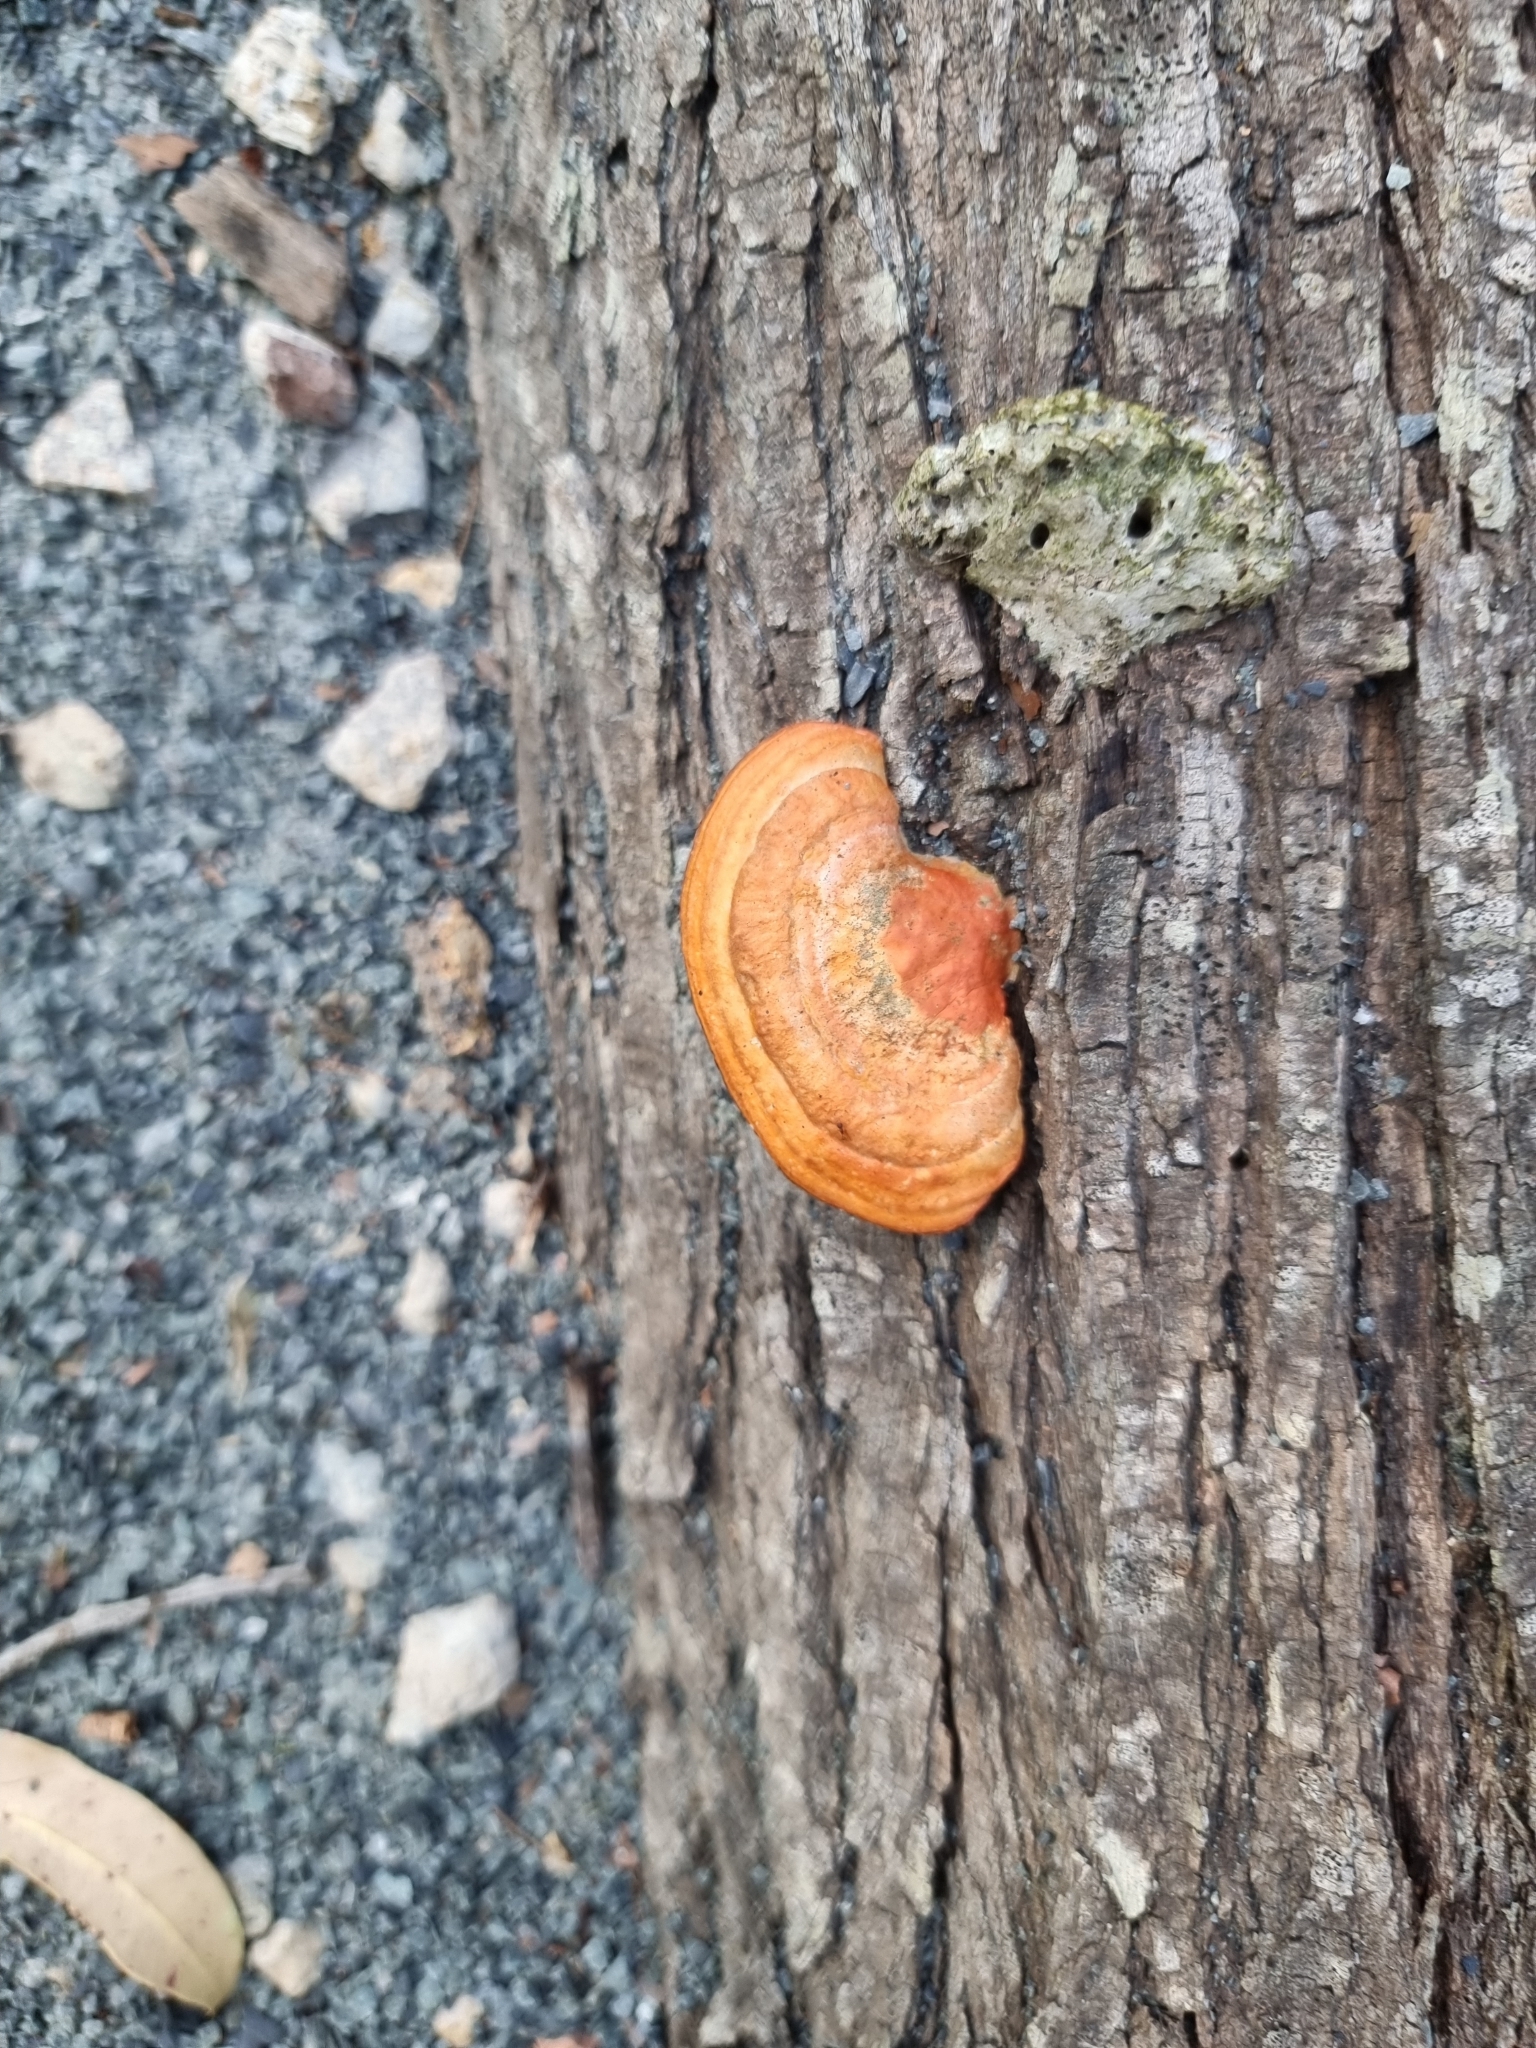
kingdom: Fungi
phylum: Basidiomycota
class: Agaricomycetes
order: Polyporales
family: Polyporaceae
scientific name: Polyporaceae
